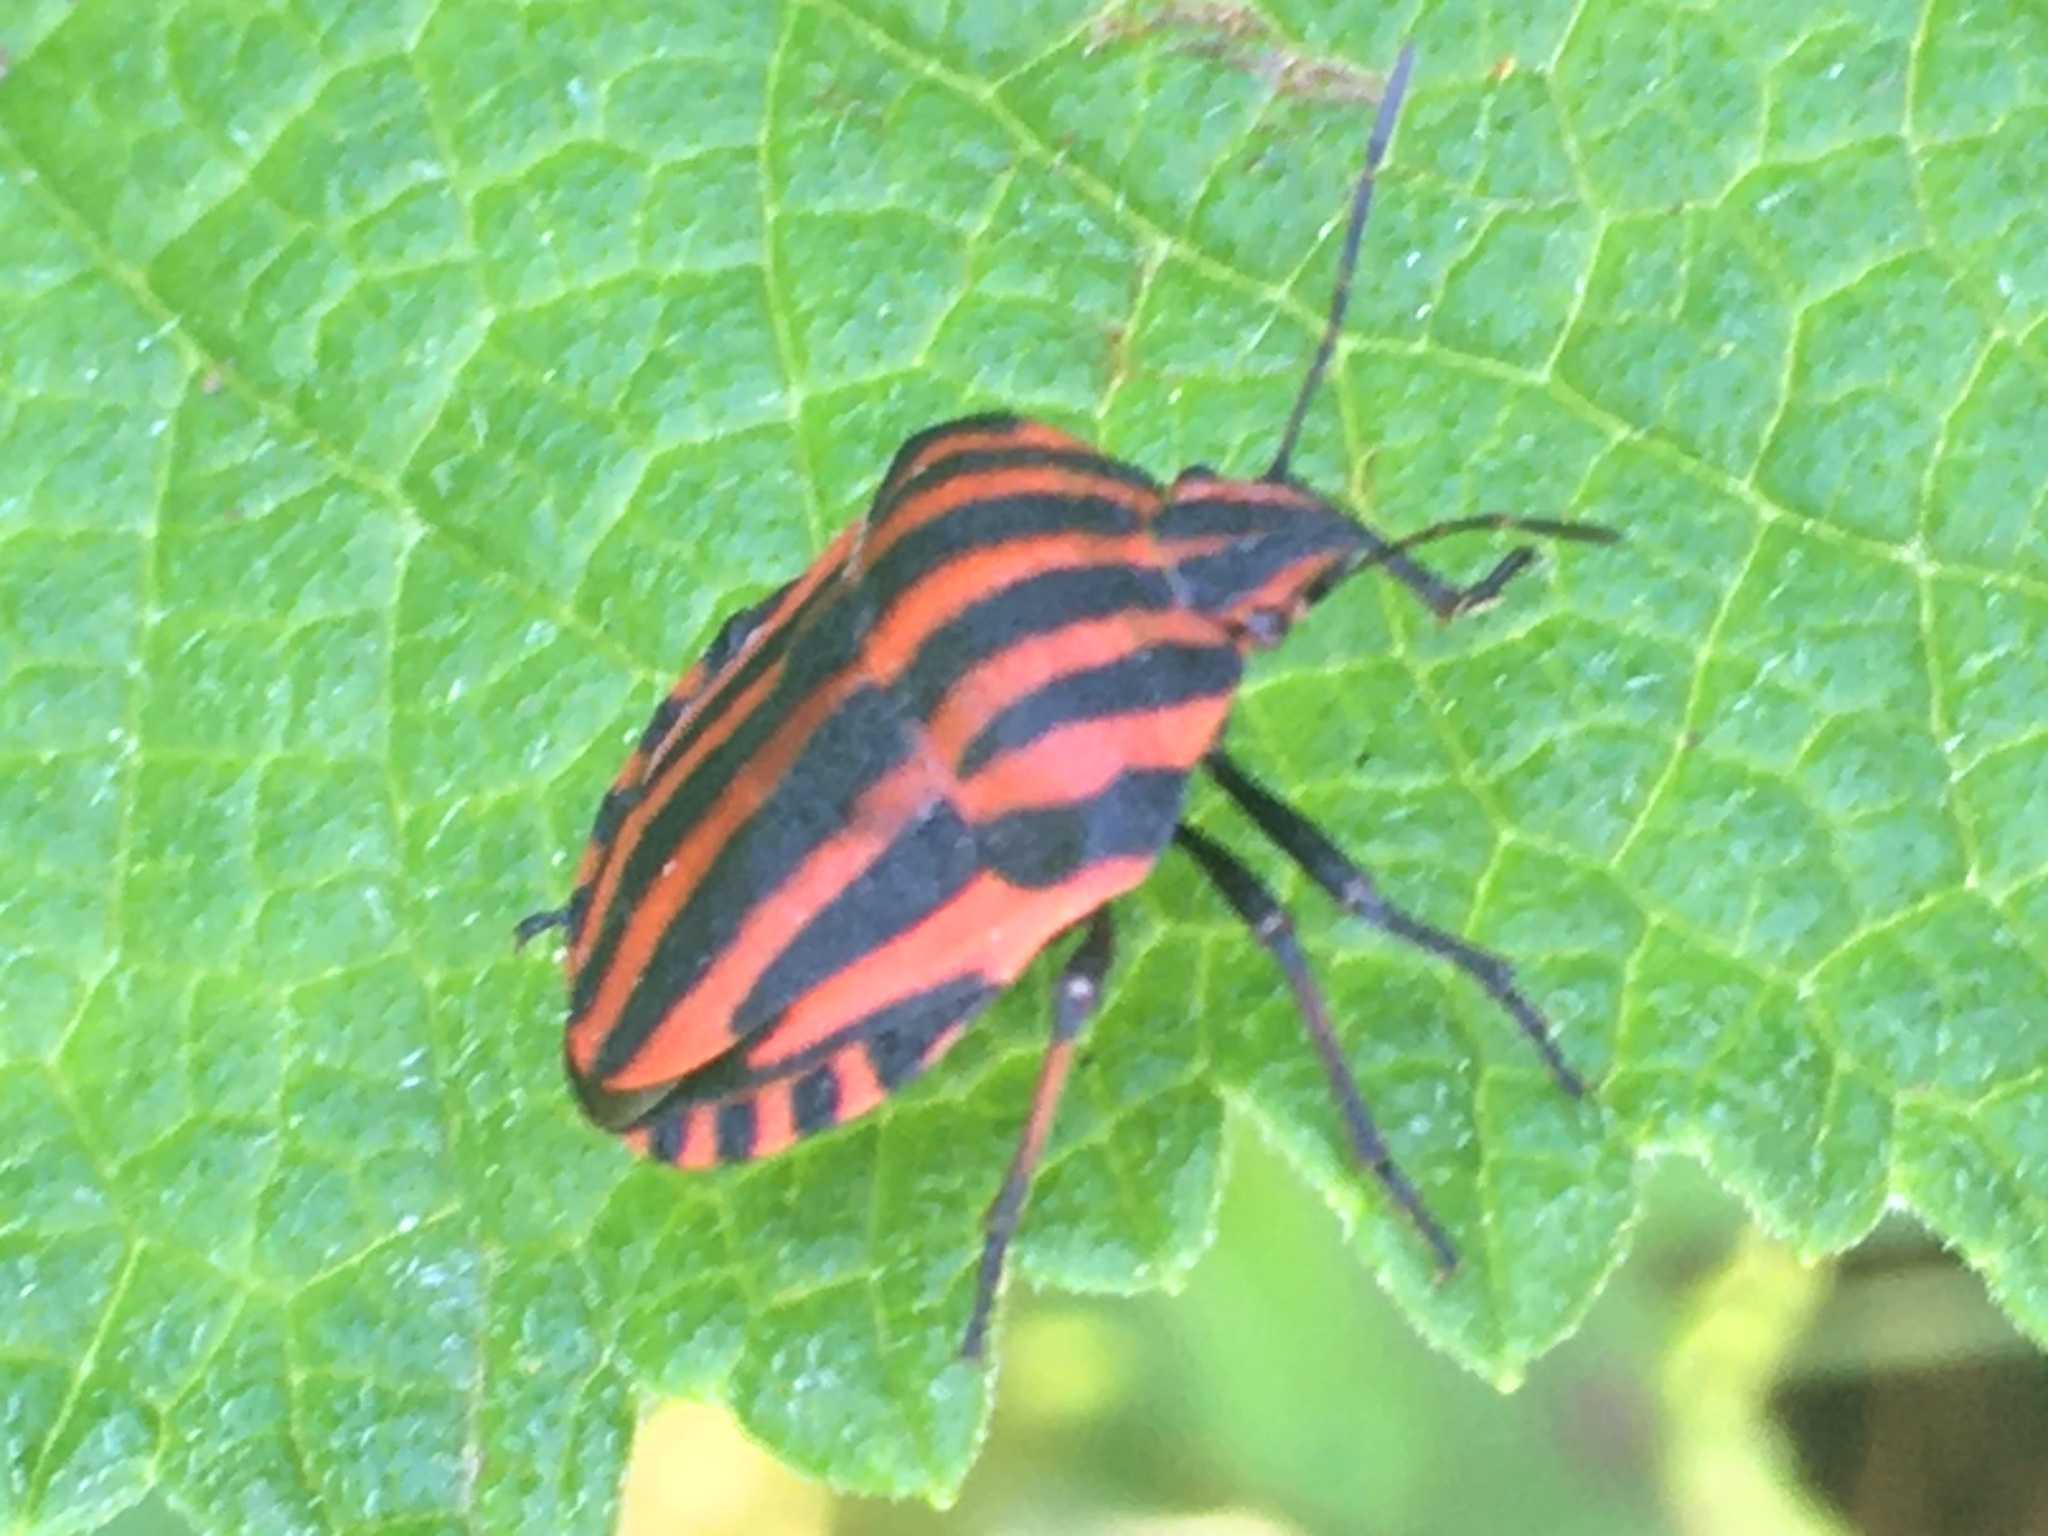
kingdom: Animalia
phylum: Arthropoda
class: Insecta
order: Hemiptera
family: Pentatomidae
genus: Graphosoma
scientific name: Graphosoma italicum
